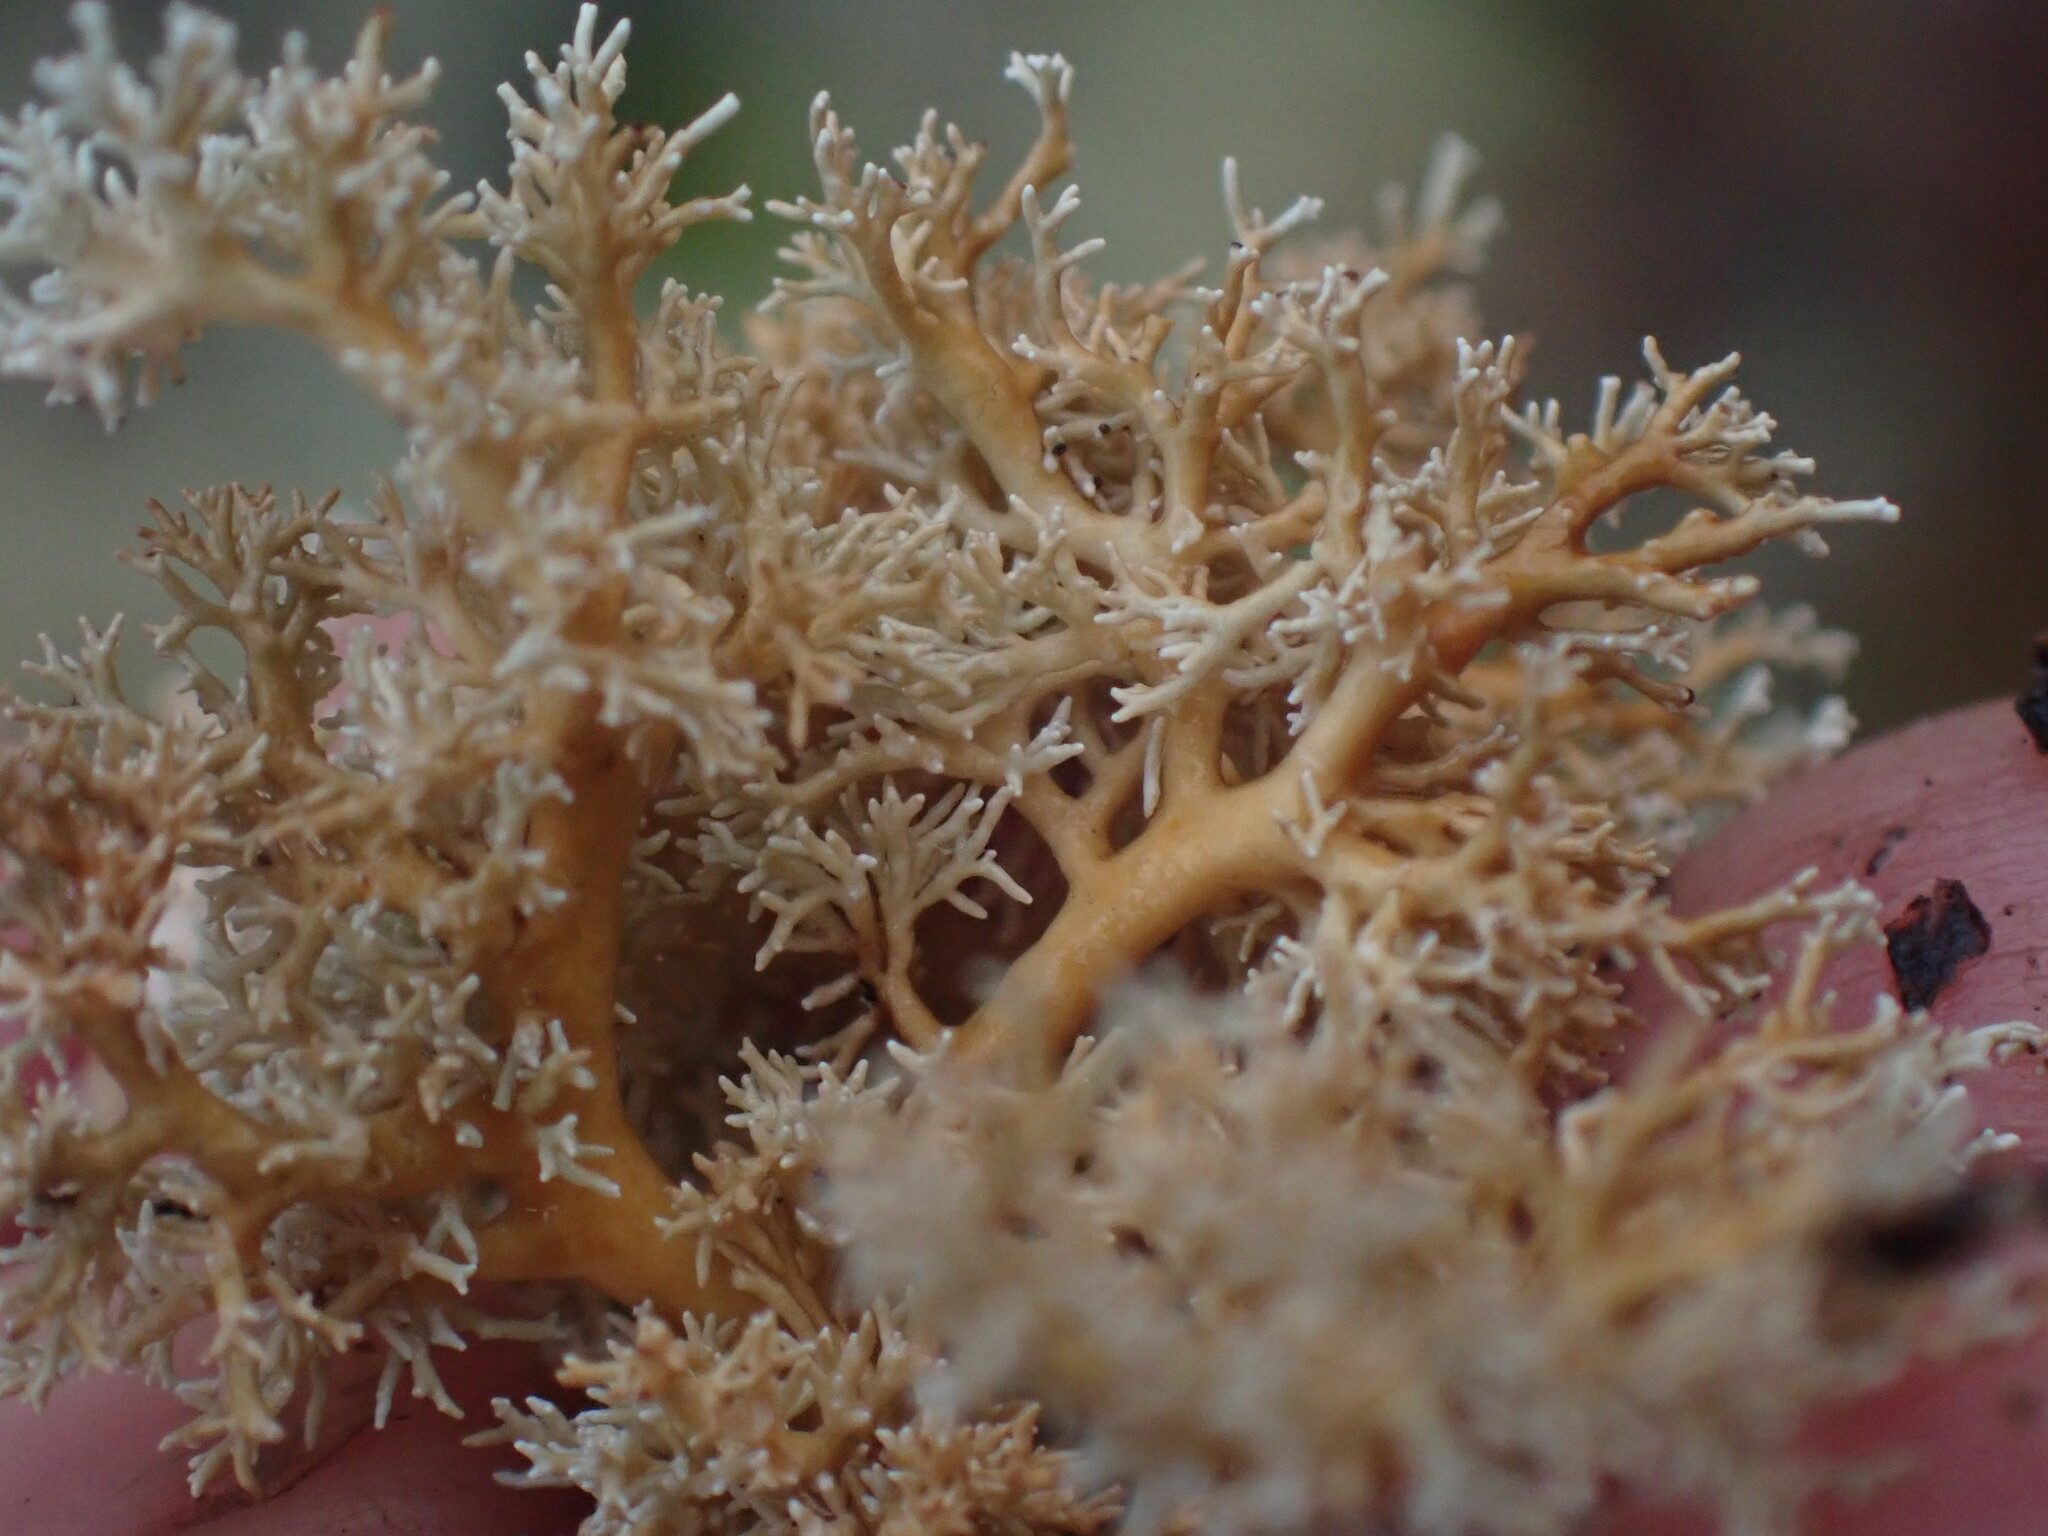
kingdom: Fungi
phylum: Ascomycota
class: Lecanoromycetes
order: Lecanorales
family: Sphaerophoraceae
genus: Sphaerophorus
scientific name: Sphaerophorus globosus
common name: Globe ball lichen
